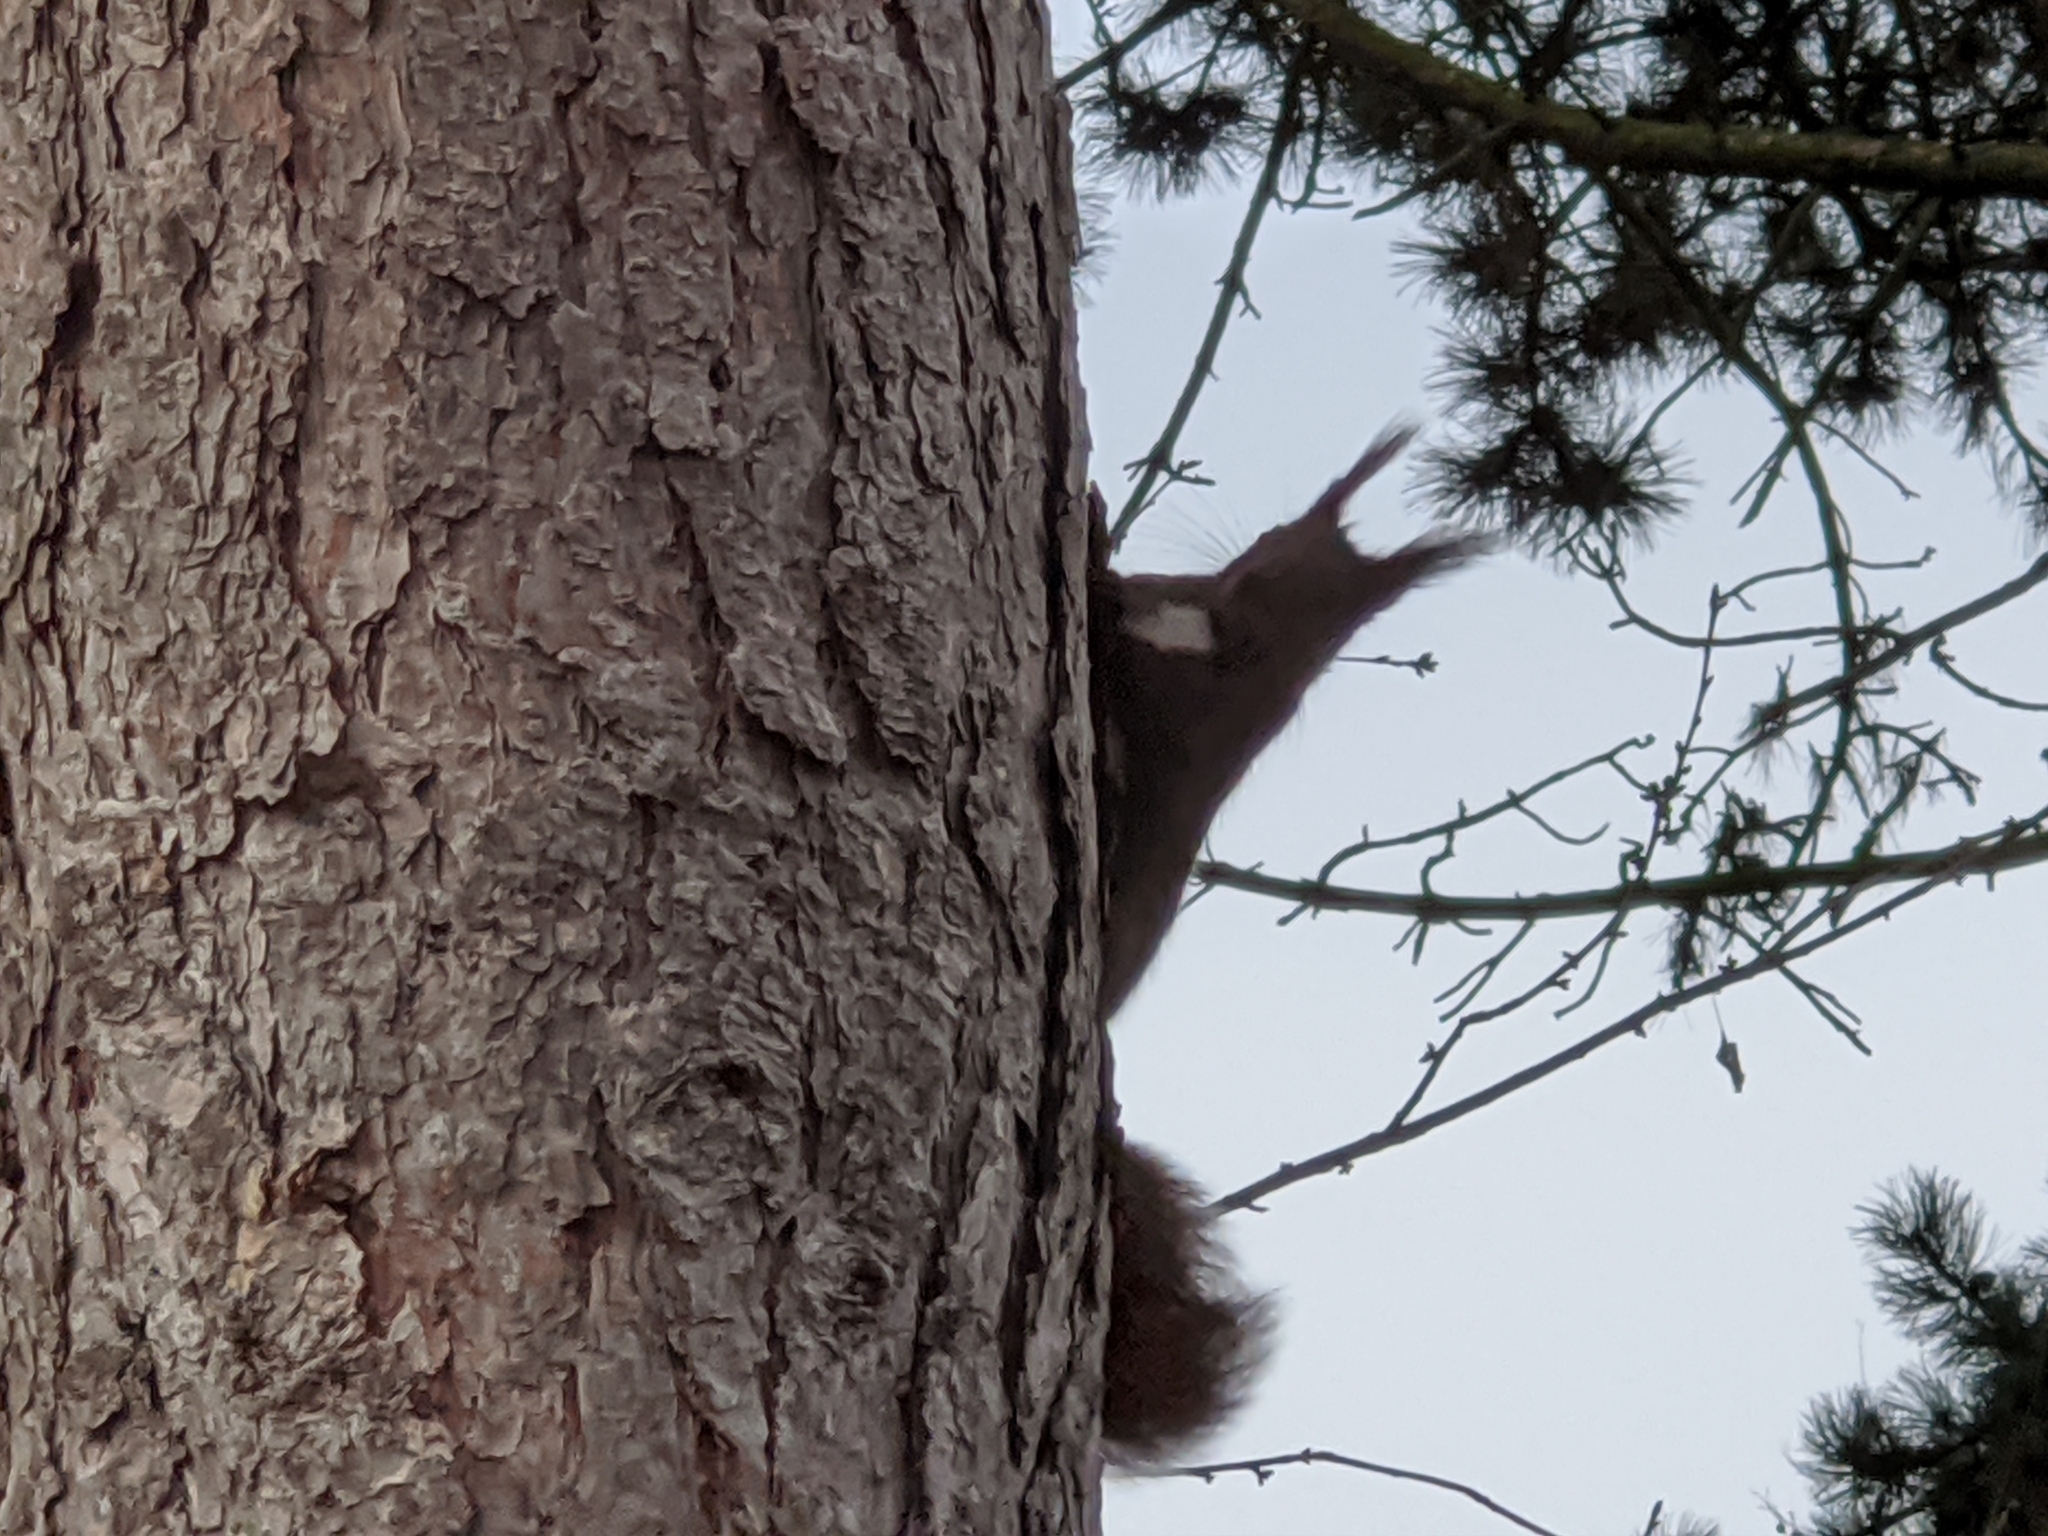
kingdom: Animalia
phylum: Chordata
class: Mammalia
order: Rodentia
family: Sciuridae
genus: Sciurus
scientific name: Sciurus vulgaris
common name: Eurasian red squirrel
